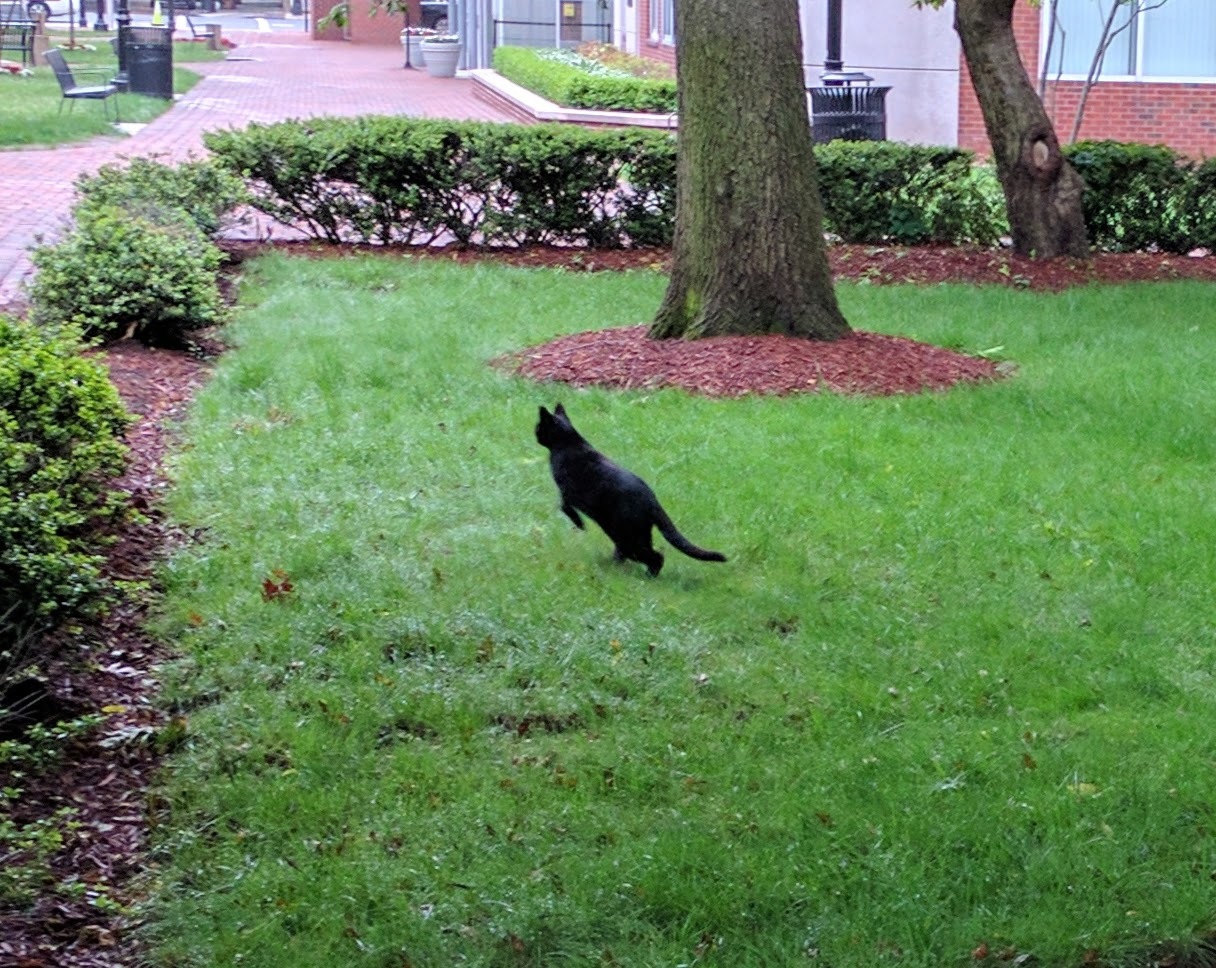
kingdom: Animalia
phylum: Chordata
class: Mammalia
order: Carnivora
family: Felidae
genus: Felis
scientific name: Felis catus
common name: Domestic cat
